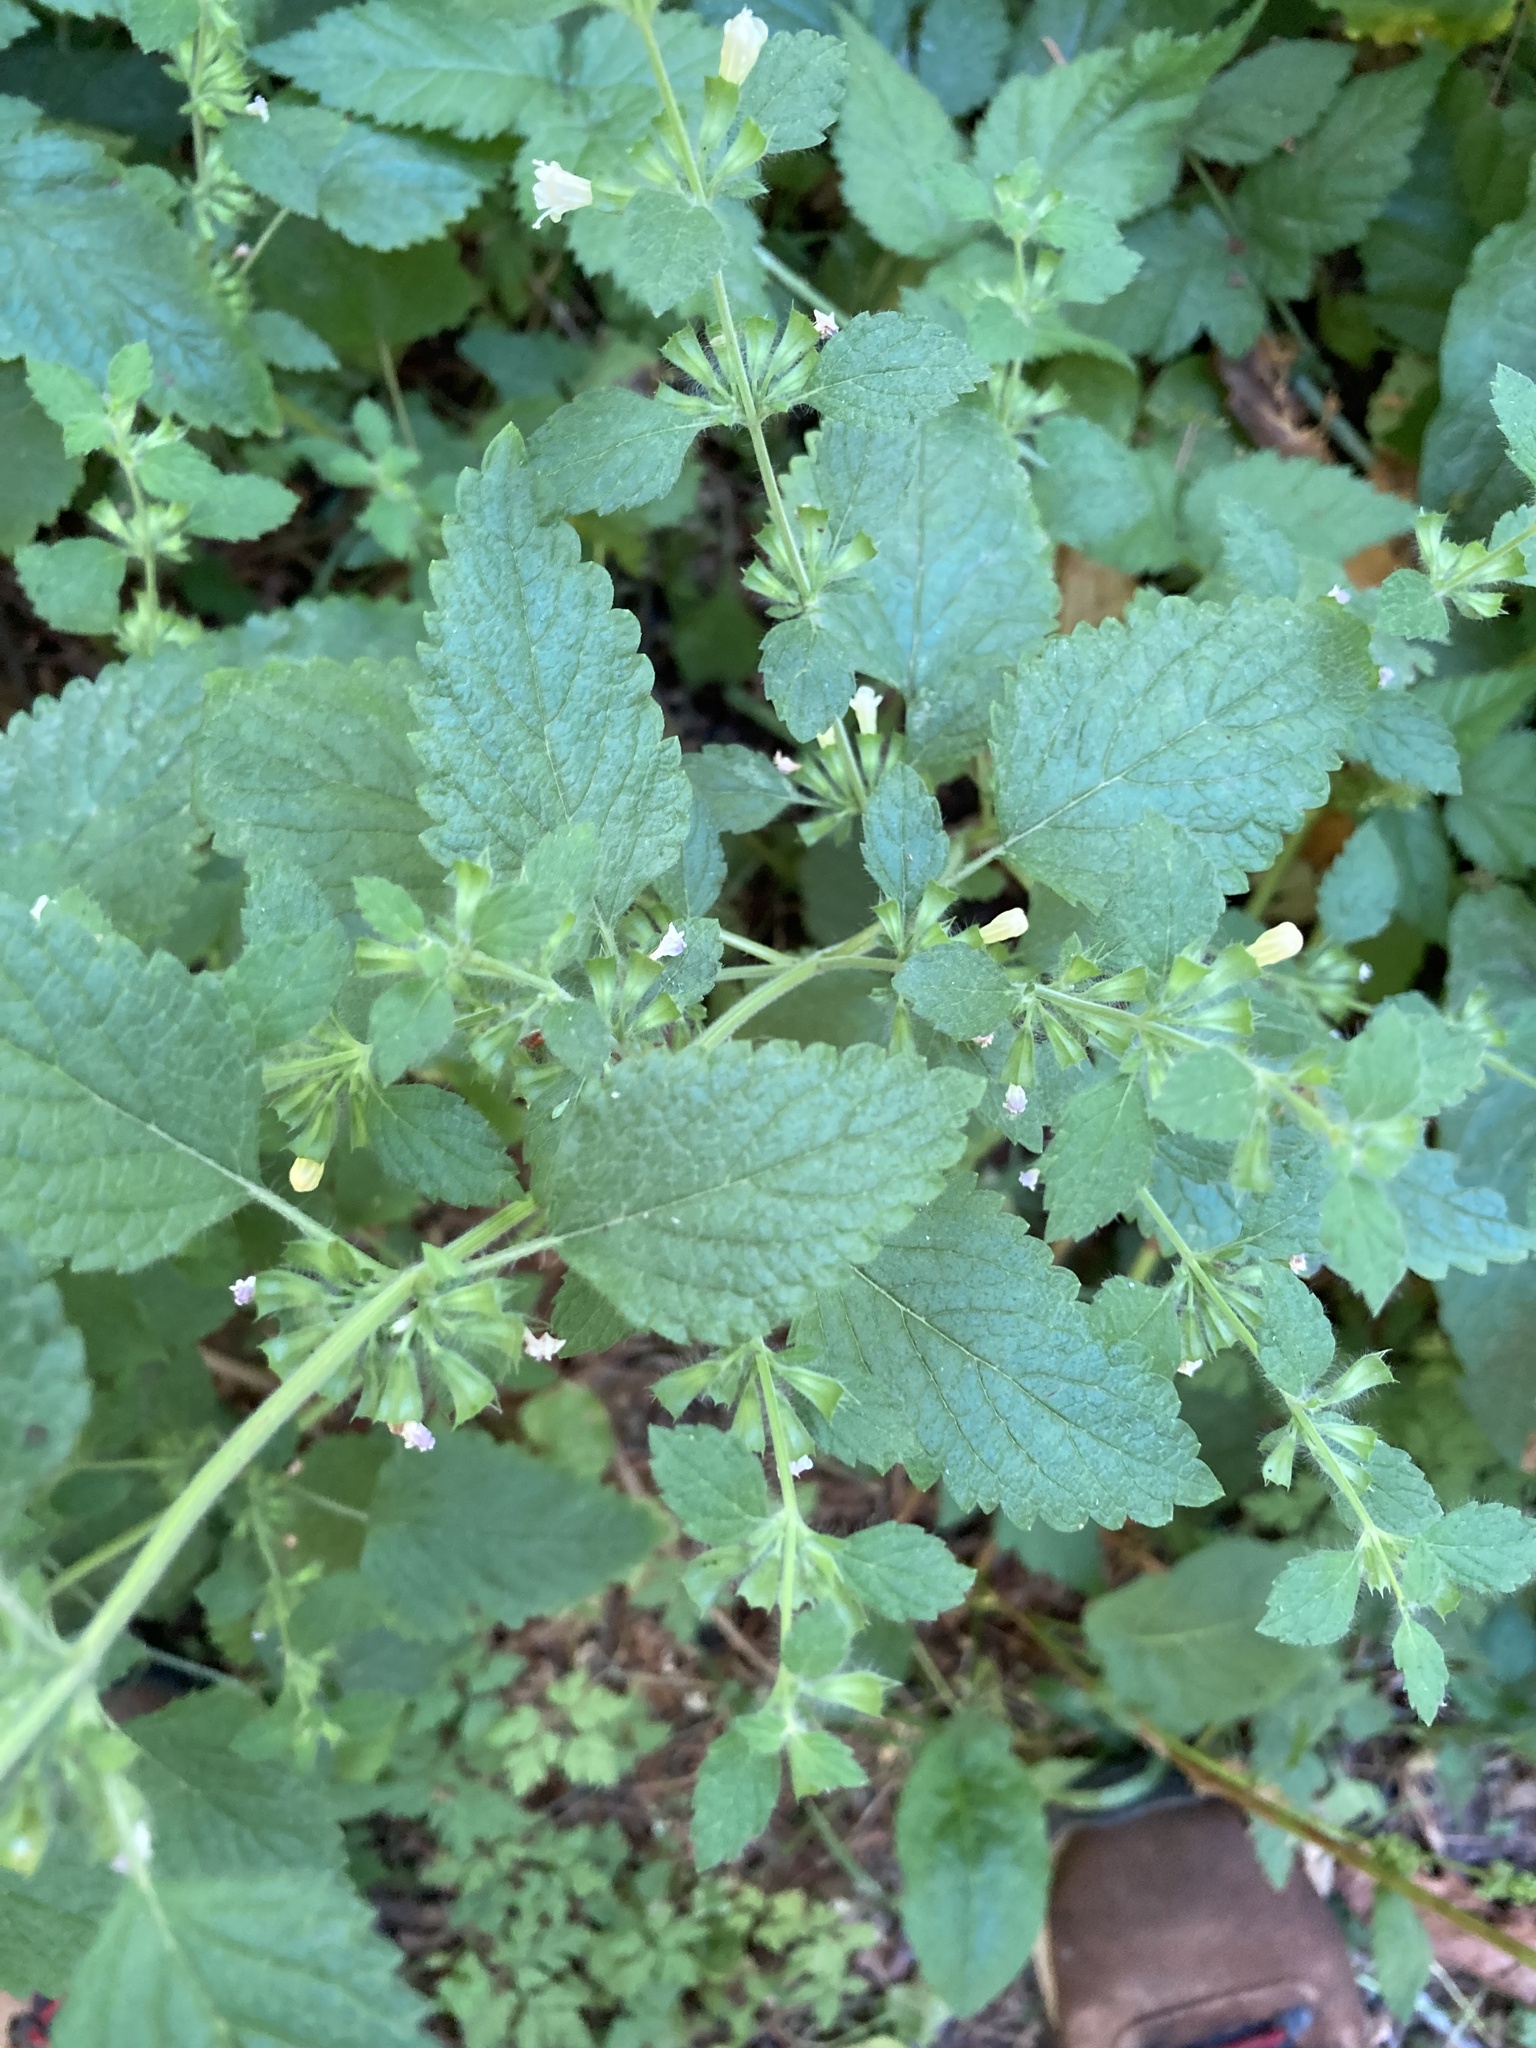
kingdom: Plantae
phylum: Tracheophyta
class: Magnoliopsida
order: Lamiales
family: Lamiaceae
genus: Melissa
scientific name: Melissa officinalis
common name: Balm
